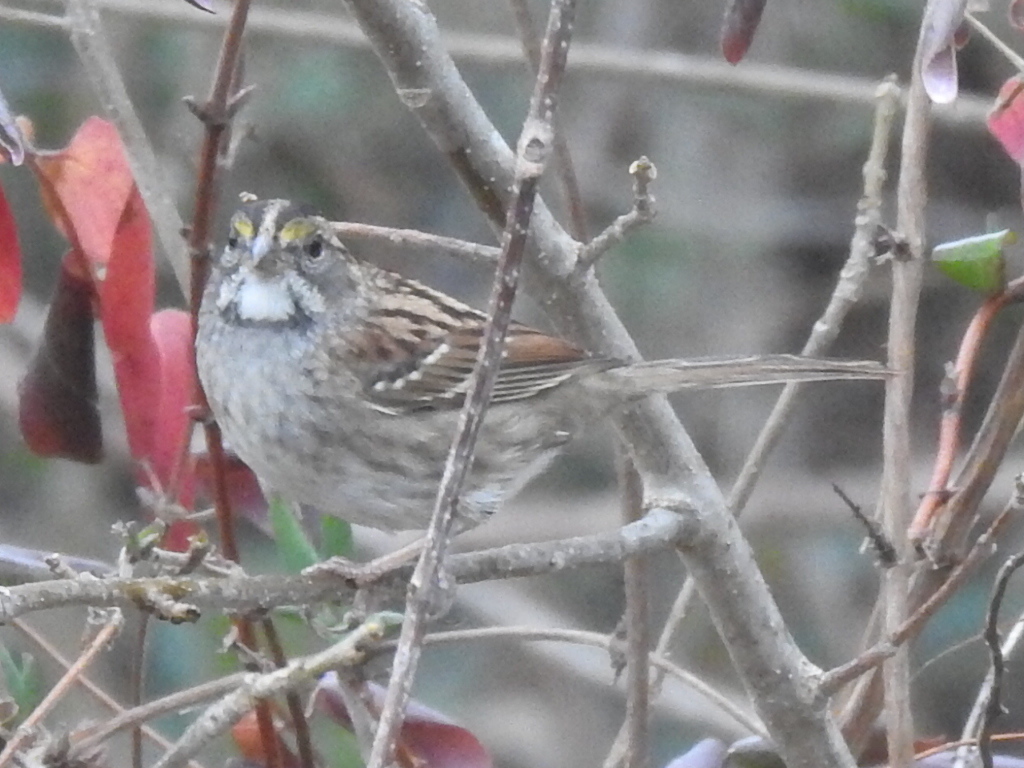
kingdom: Animalia
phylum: Chordata
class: Aves
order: Passeriformes
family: Passerellidae
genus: Zonotrichia
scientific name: Zonotrichia albicollis
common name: White-throated sparrow
